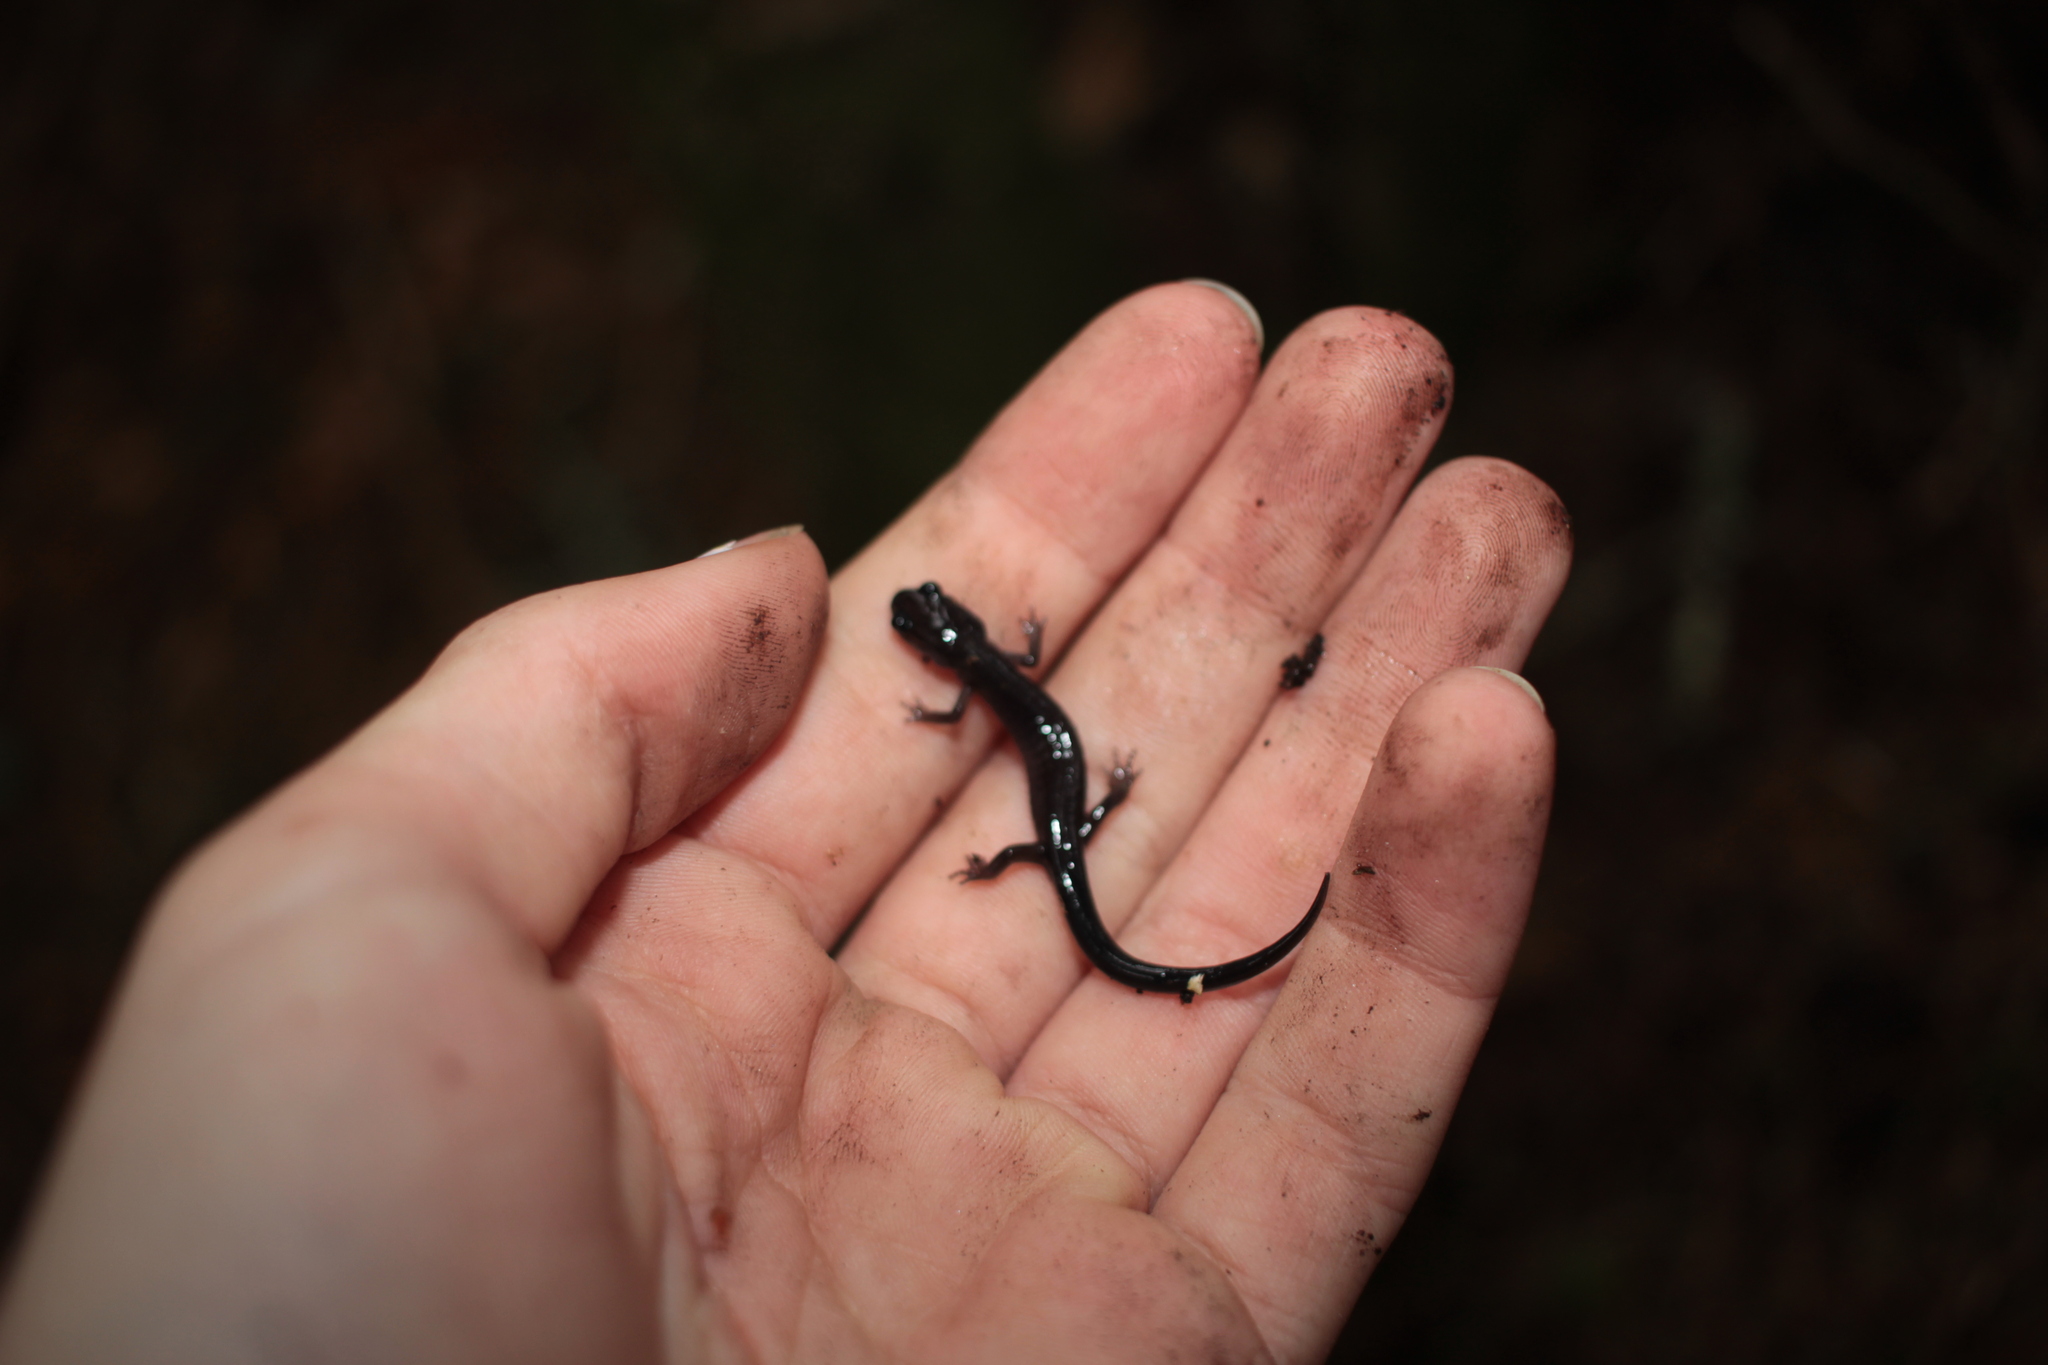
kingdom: Animalia
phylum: Chordata
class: Amphibia
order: Caudata
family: Plethodontidae
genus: Plethodon
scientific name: Plethodon montanus
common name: Northern gray-cheeked salamander
